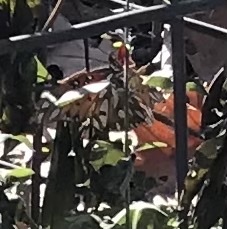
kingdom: Animalia
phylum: Arthropoda
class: Insecta
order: Lepidoptera
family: Nymphalidae
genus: Dione
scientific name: Dione vanillae
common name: Gulf fritillary
